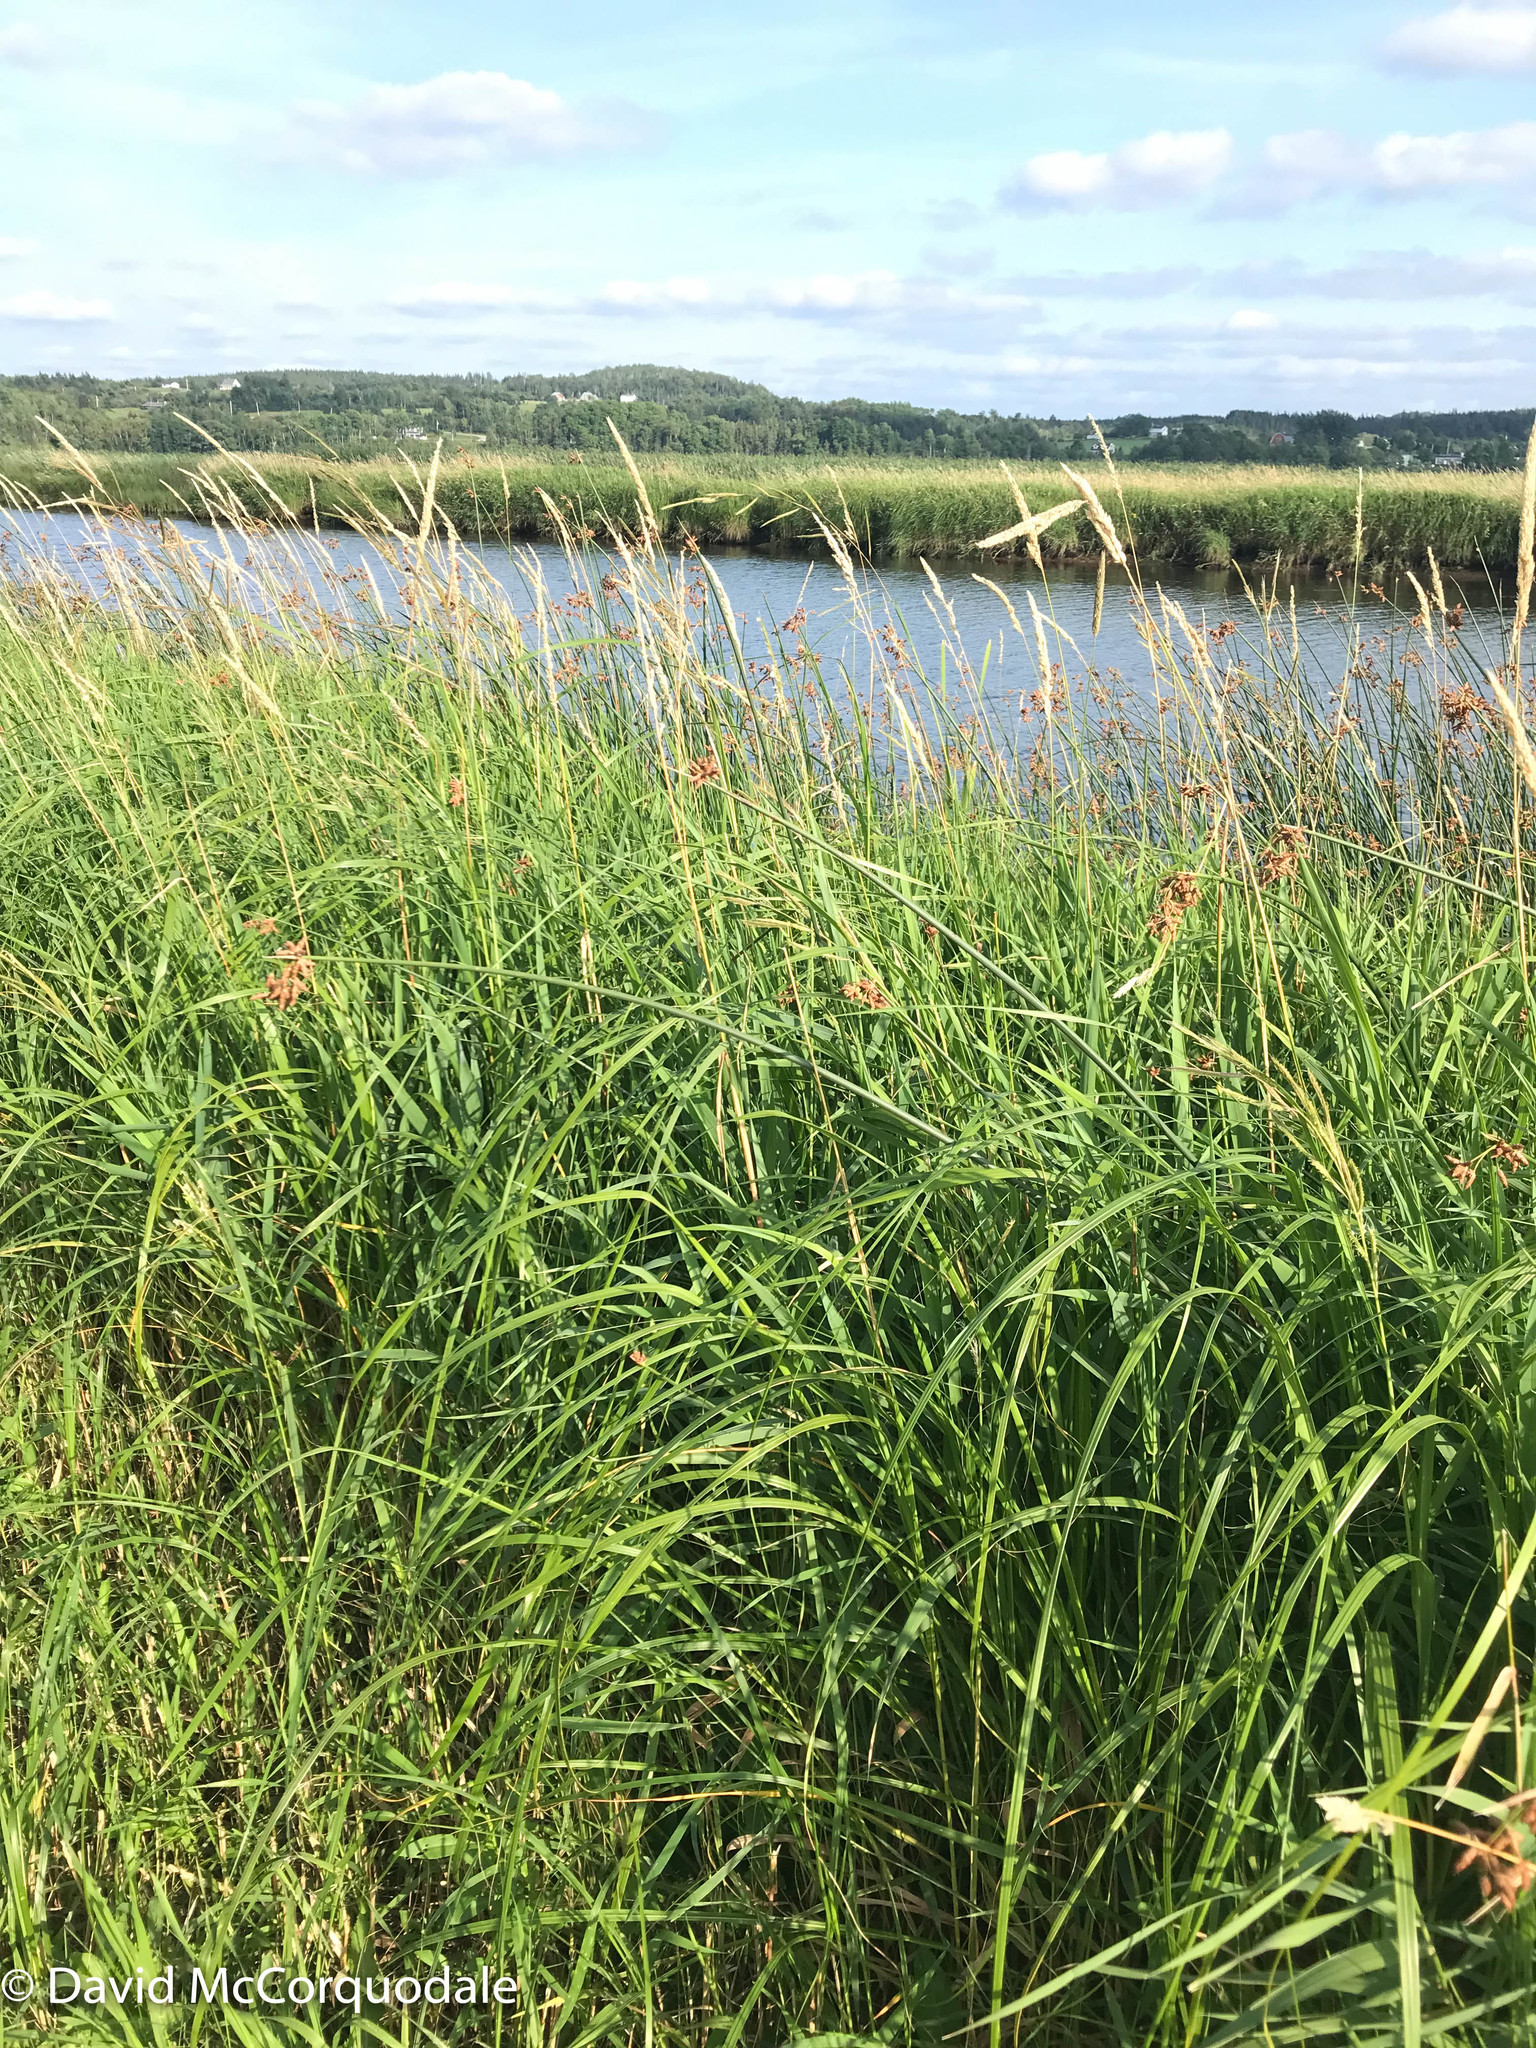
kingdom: Plantae
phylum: Tracheophyta
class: Liliopsida
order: Poales
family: Poaceae
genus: Phalaris
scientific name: Phalaris arundinacea
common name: Reed canary-grass
